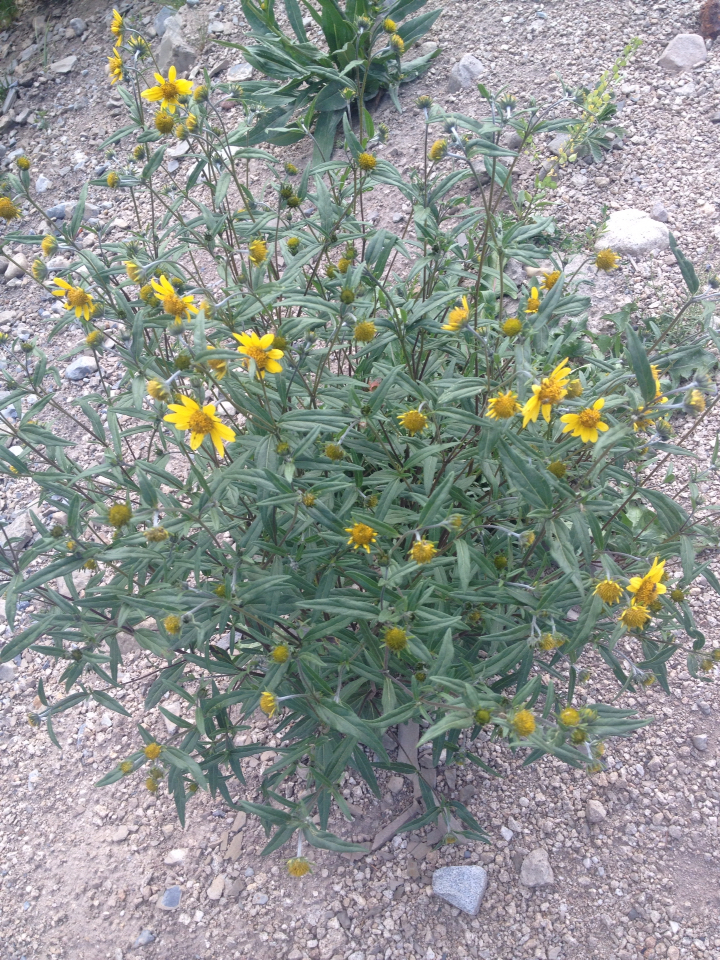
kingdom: Plantae
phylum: Tracheophyta
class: Magnoliopsida
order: Asterales
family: Asteraceae
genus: Heliomeris
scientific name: Heliomeris multiflora
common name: Showy goldeneye
